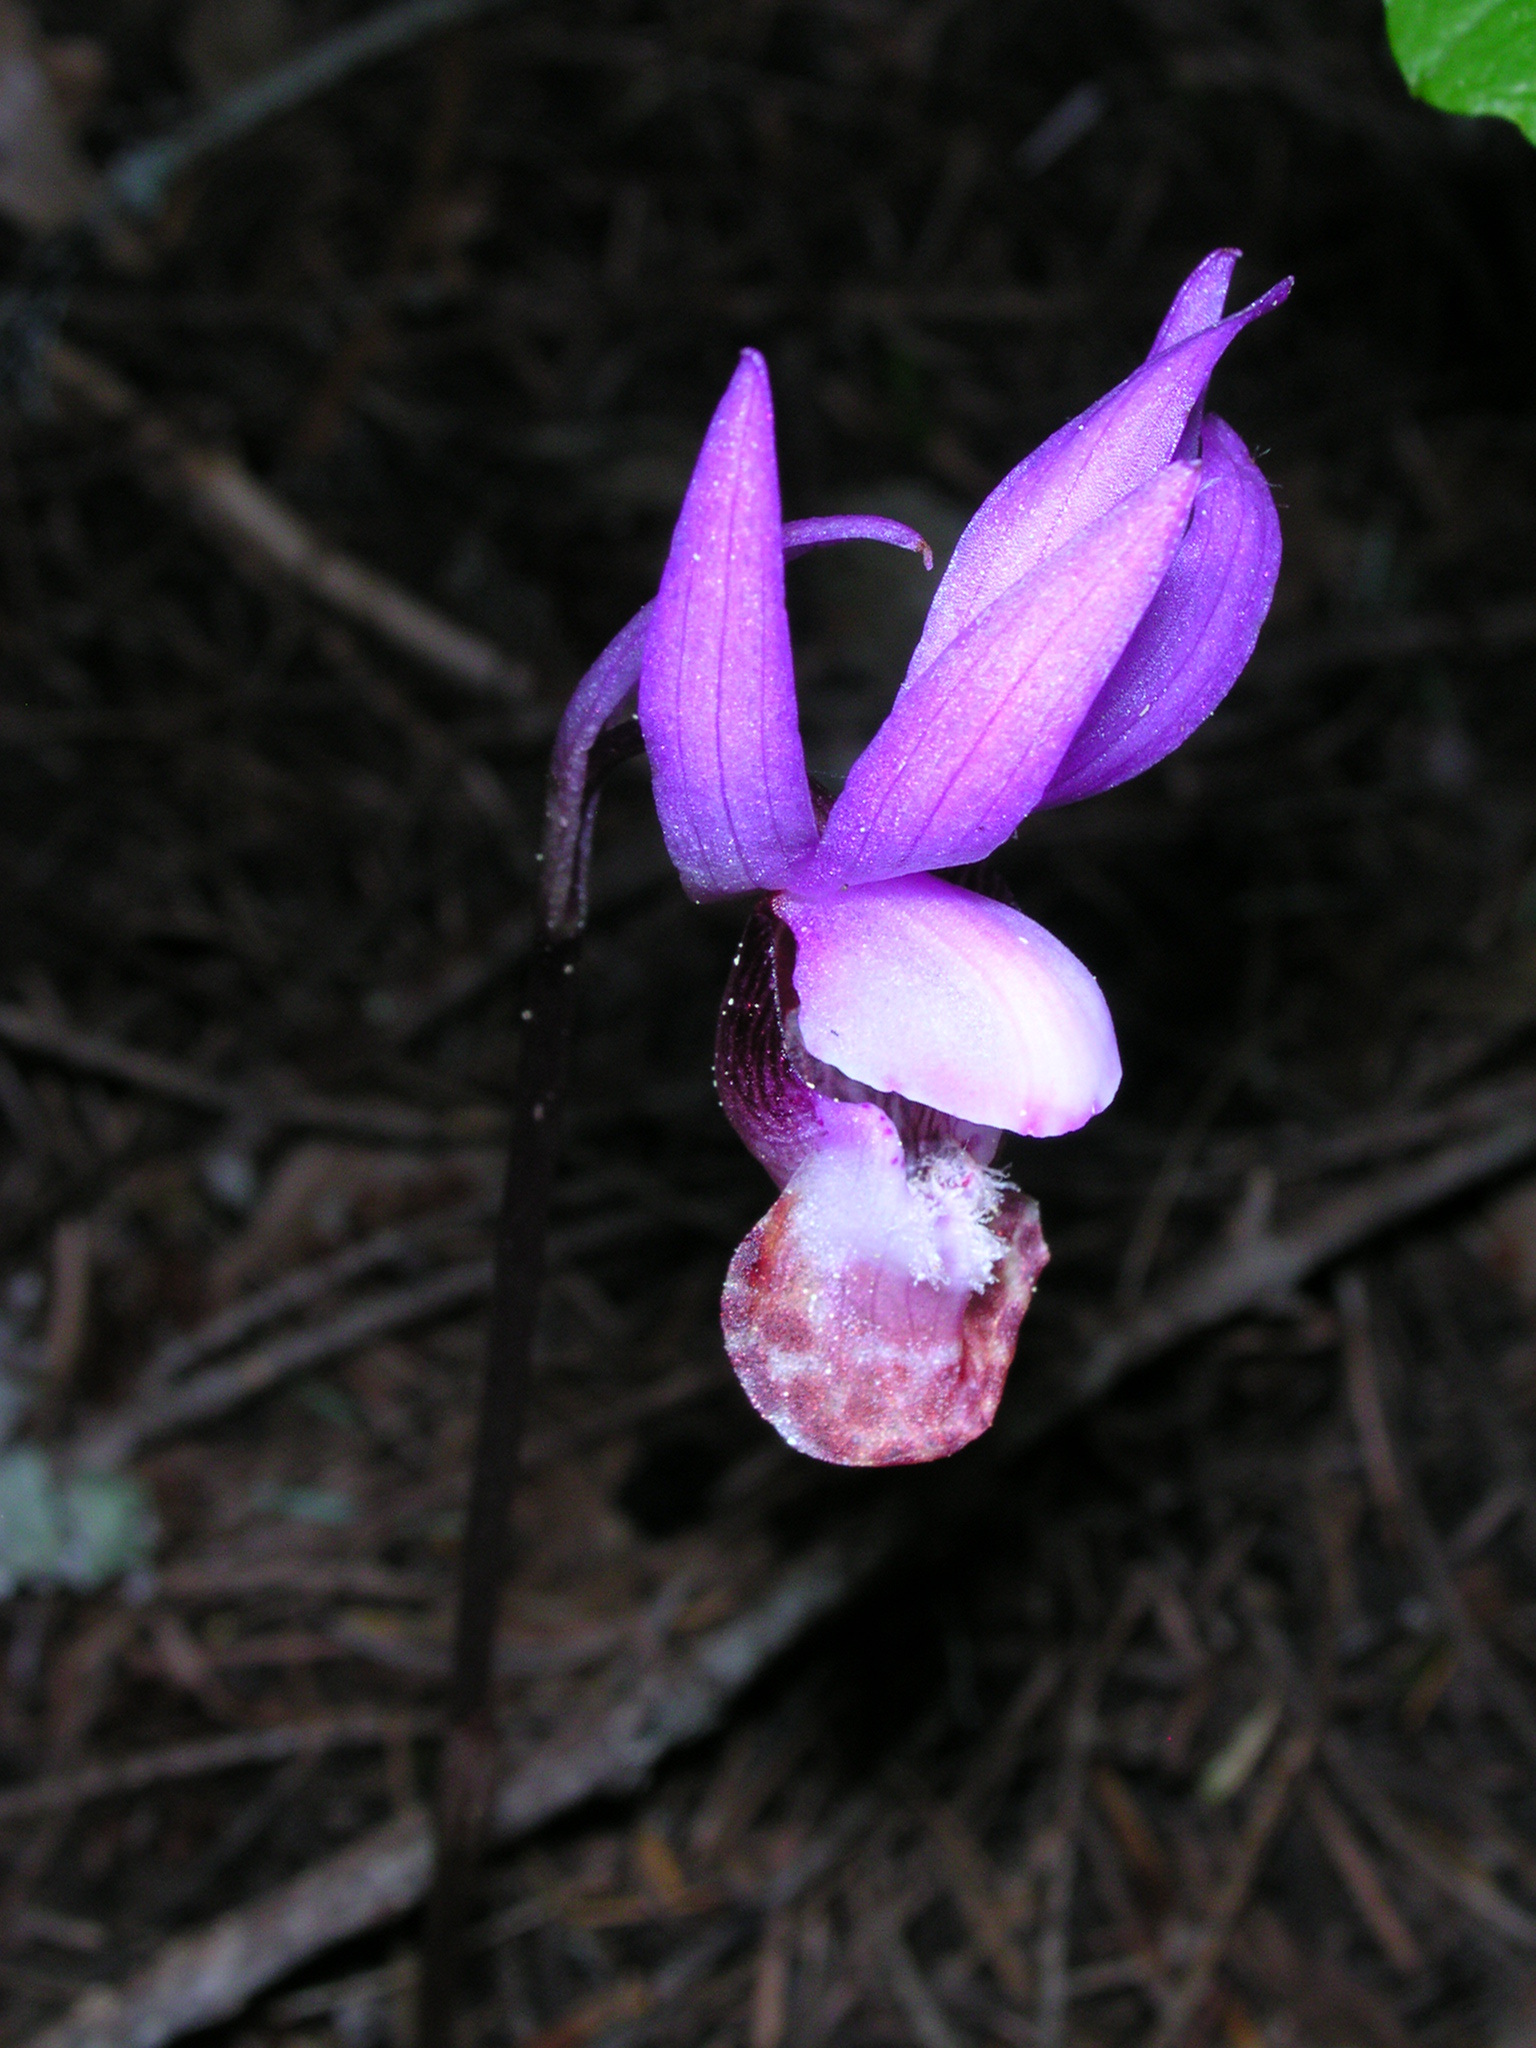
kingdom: Plantae
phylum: Tracheophyta
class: Liliopsida
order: Asparagales
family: Orchidaceae
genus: Calypso
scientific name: Calypso bulbosa
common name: Calypso
